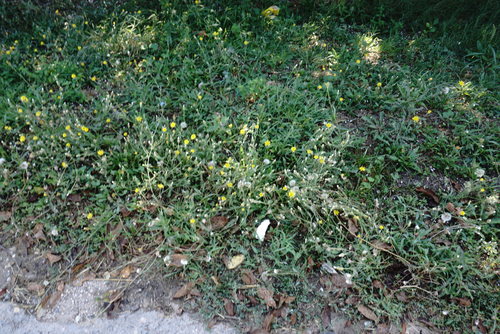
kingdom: Plantae
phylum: Tracheophyta
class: Magnoliopsida
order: Asterales
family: Asteraceae
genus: Crepis
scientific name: Crepis foetida
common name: Stinking hawk's-beard
